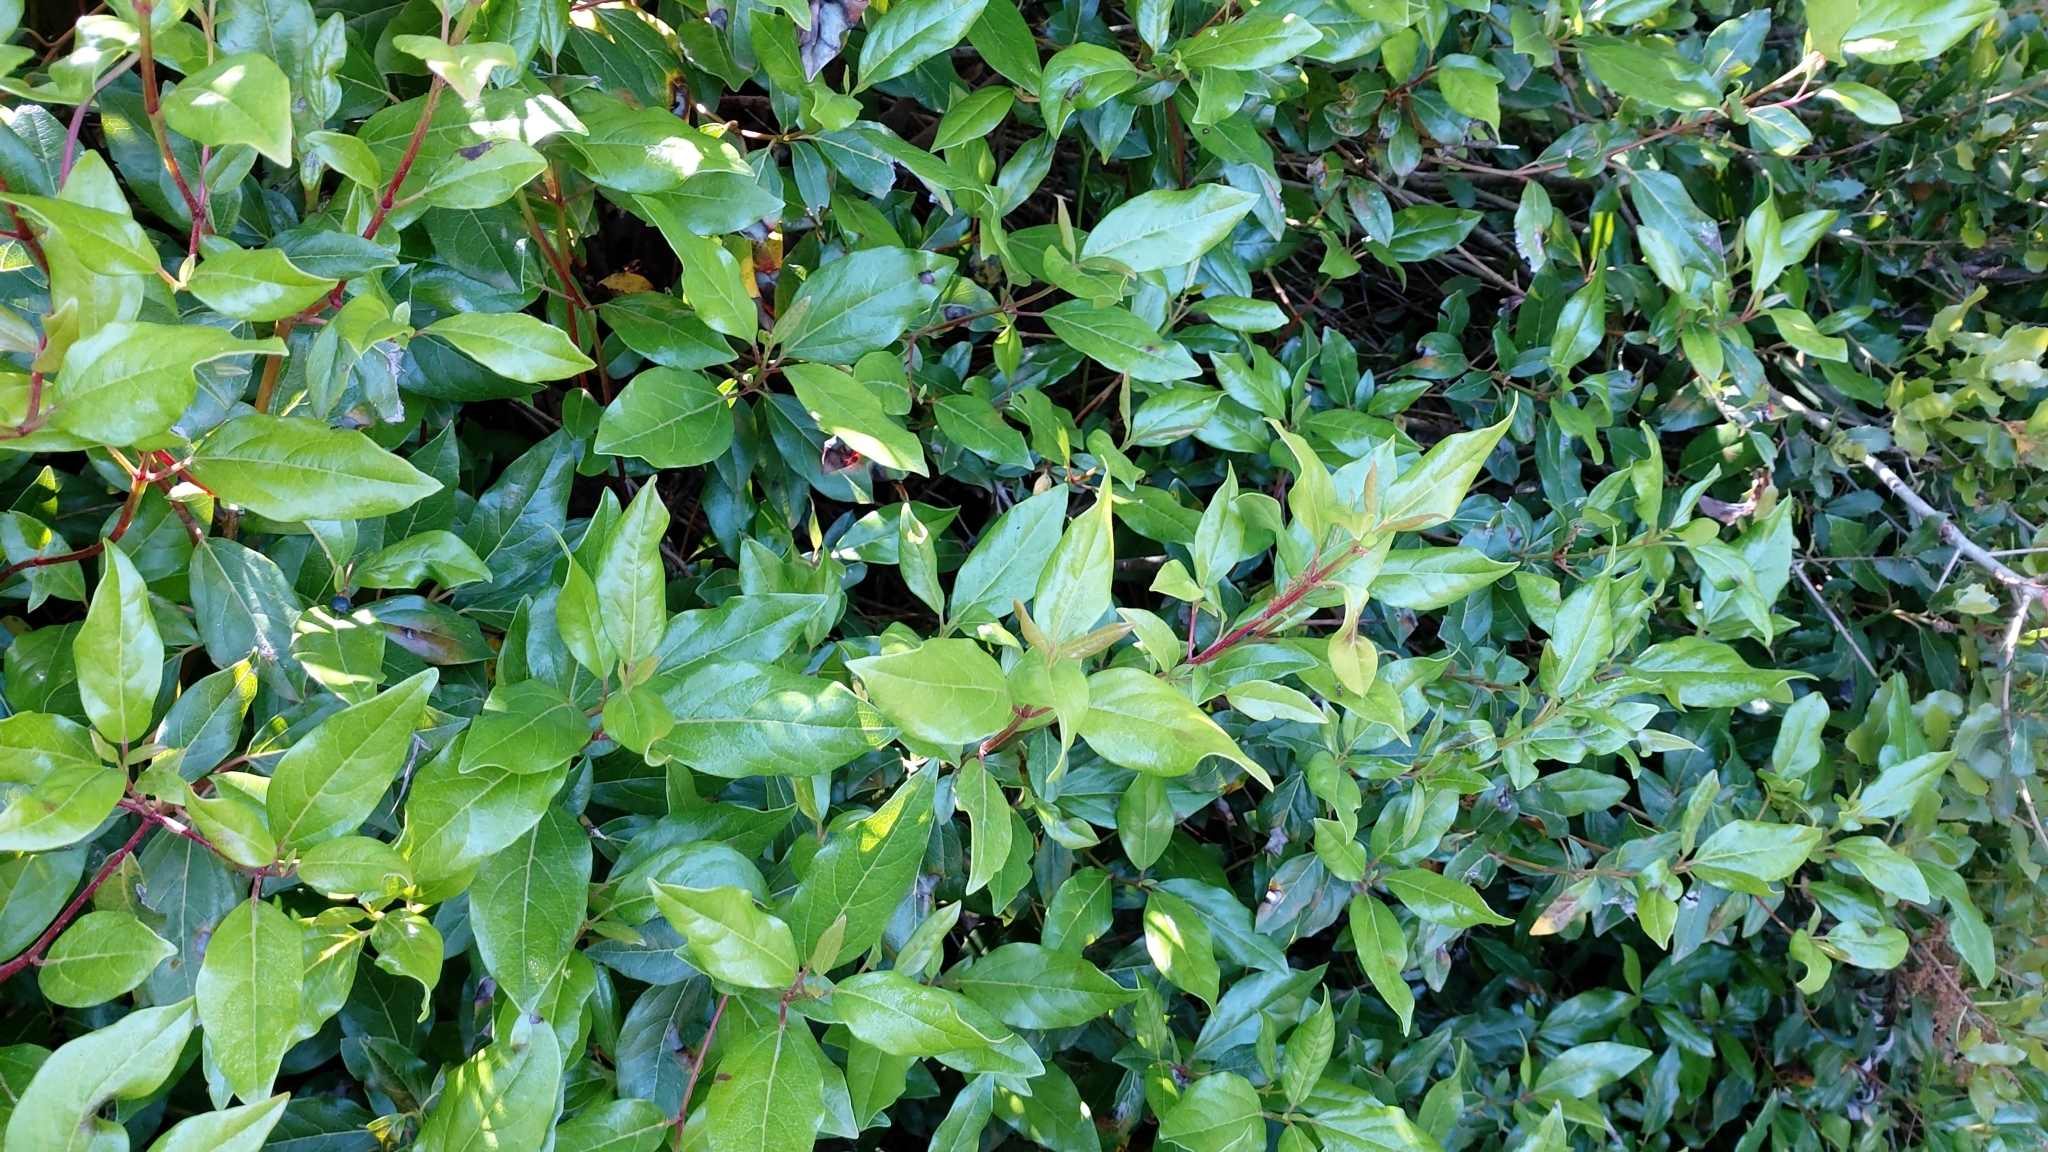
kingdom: Plantae
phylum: Tracheophyta
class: Magnoliopsida
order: Dipsacales
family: Viburnaceae
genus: Viburnum
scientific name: Viburnum tinus
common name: Laurustinus
